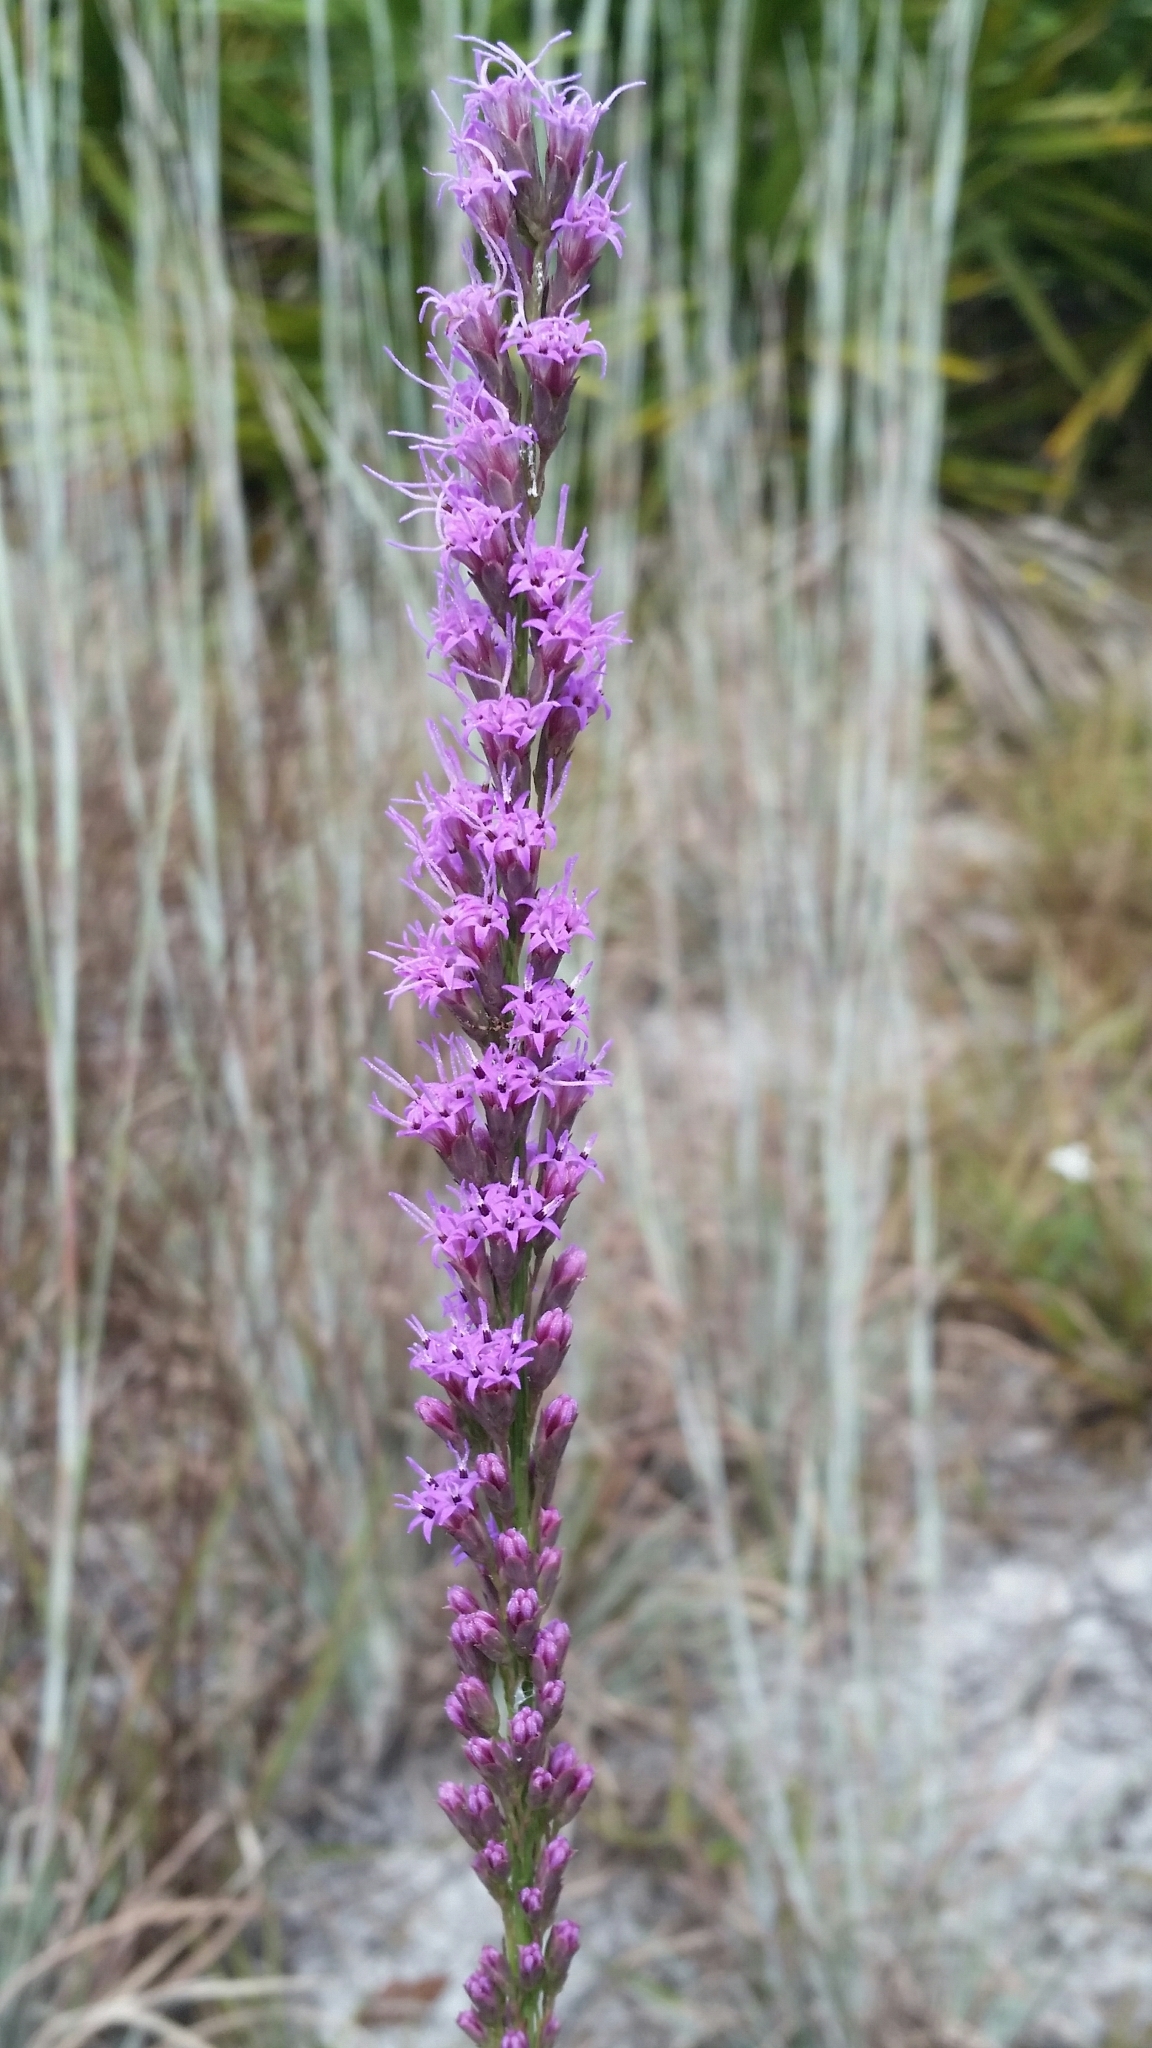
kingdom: Plantae
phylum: Tracheophyta
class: Magnoliopsida
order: Asterales
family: Asteraceae
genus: Liatris
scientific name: Liatris quadriflora
